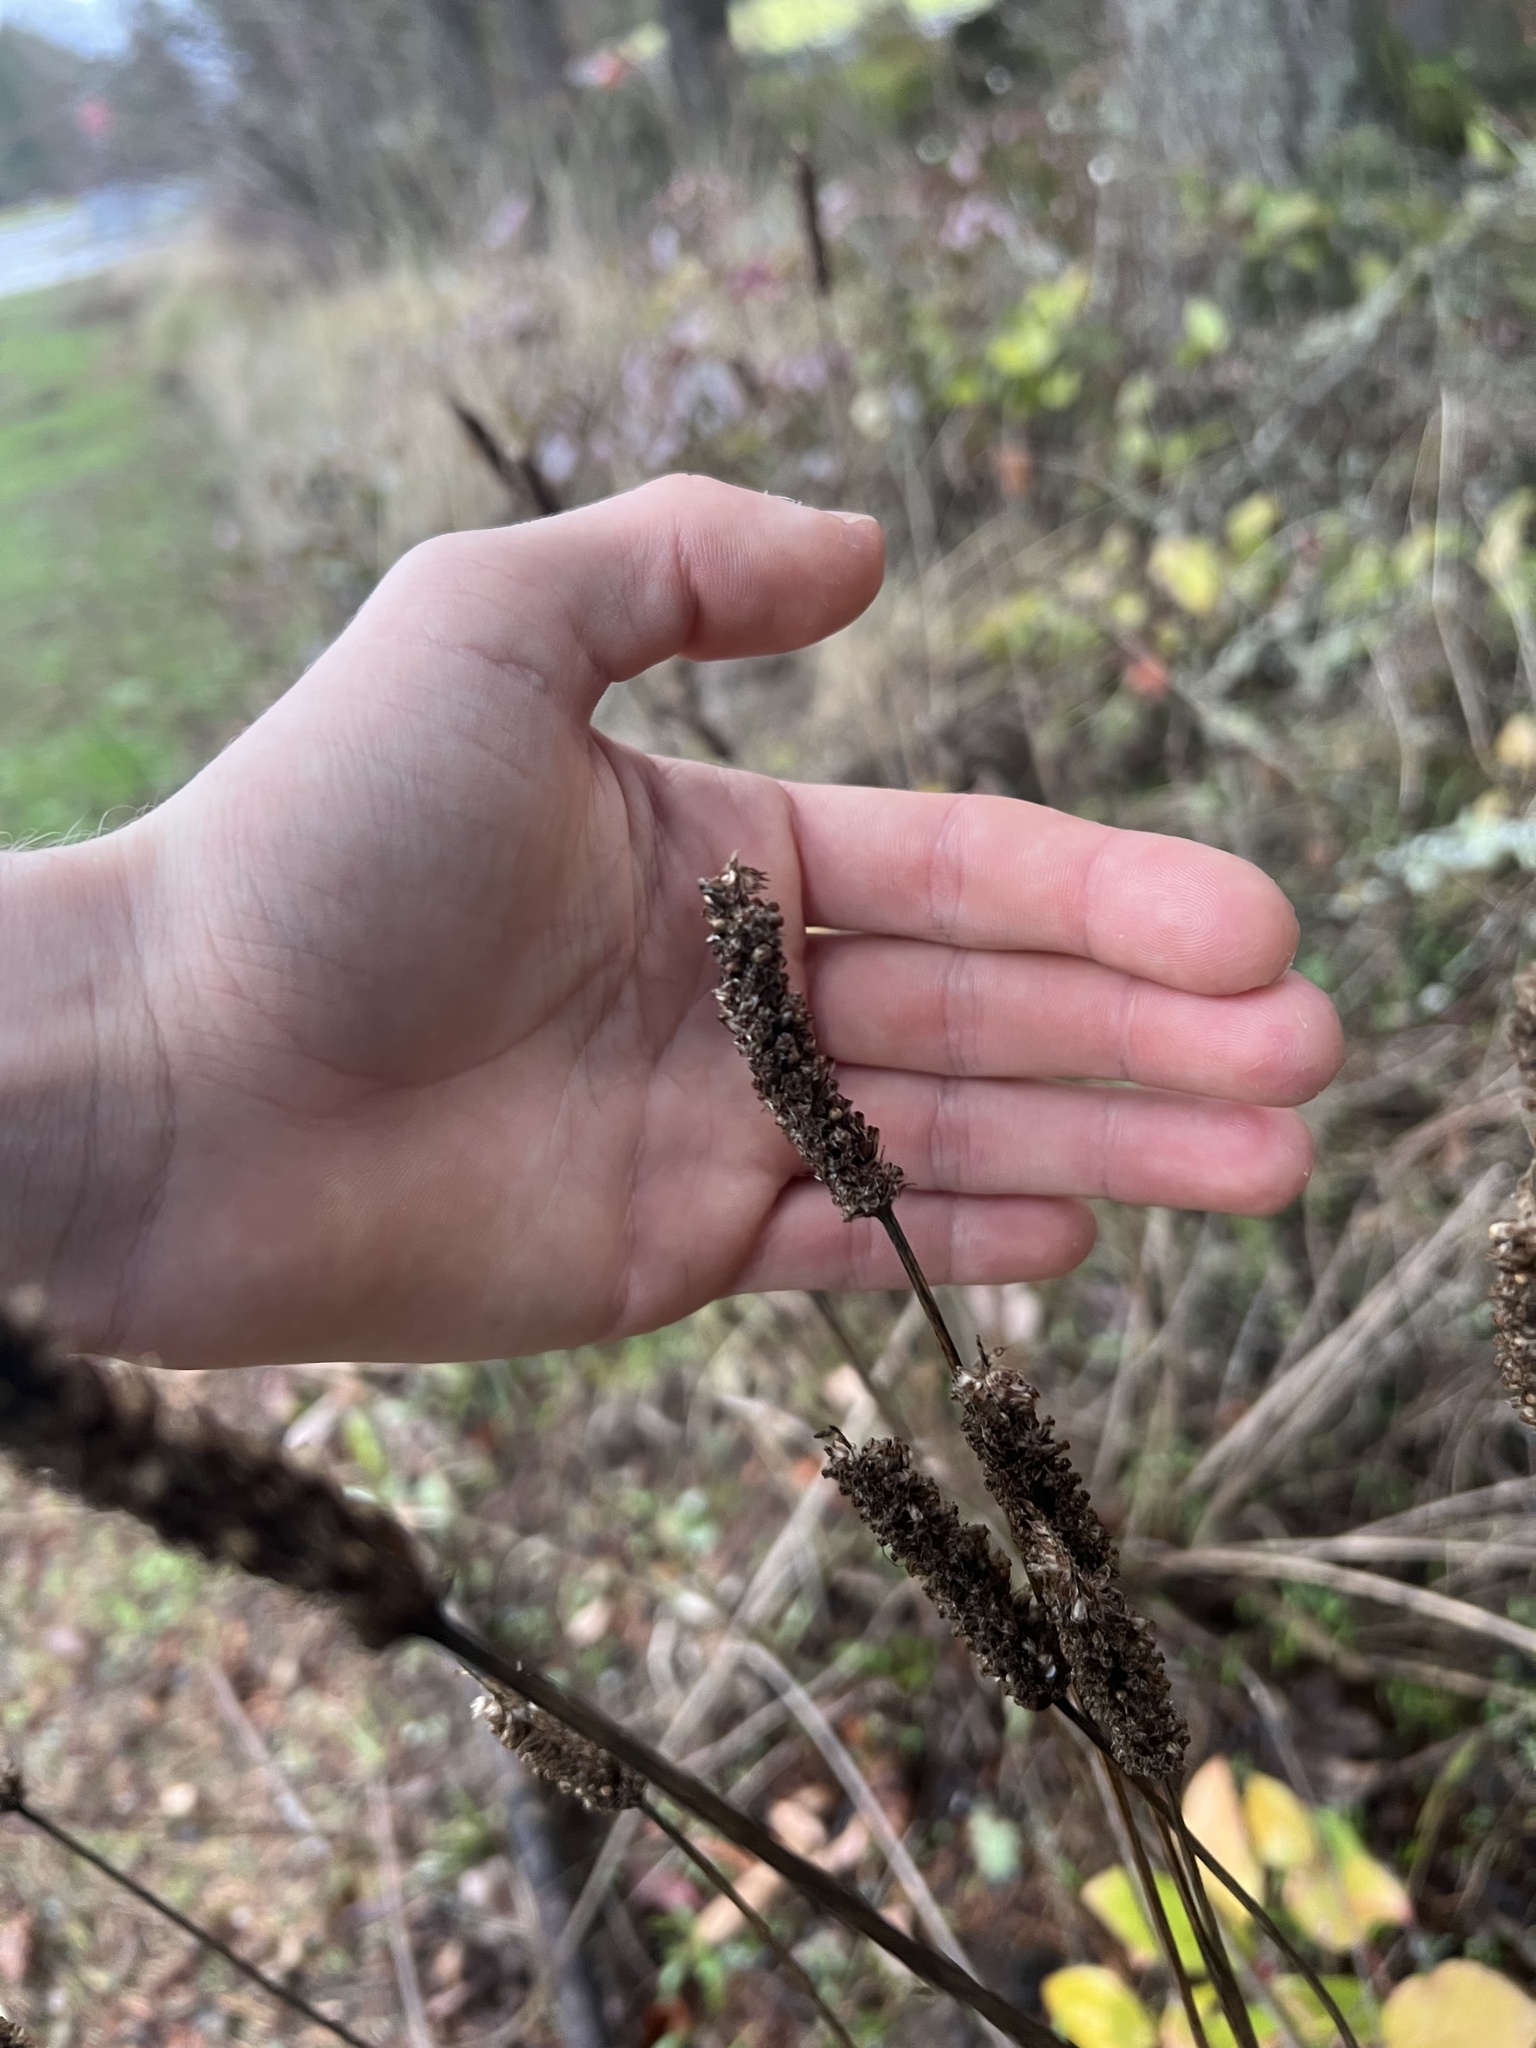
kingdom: Plantae
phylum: Tracheophyta
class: Magnoliopsida
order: Lamiales
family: Plantaginaceae
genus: Plantago
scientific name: Plantago lanceolata
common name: Ribwort plantain
